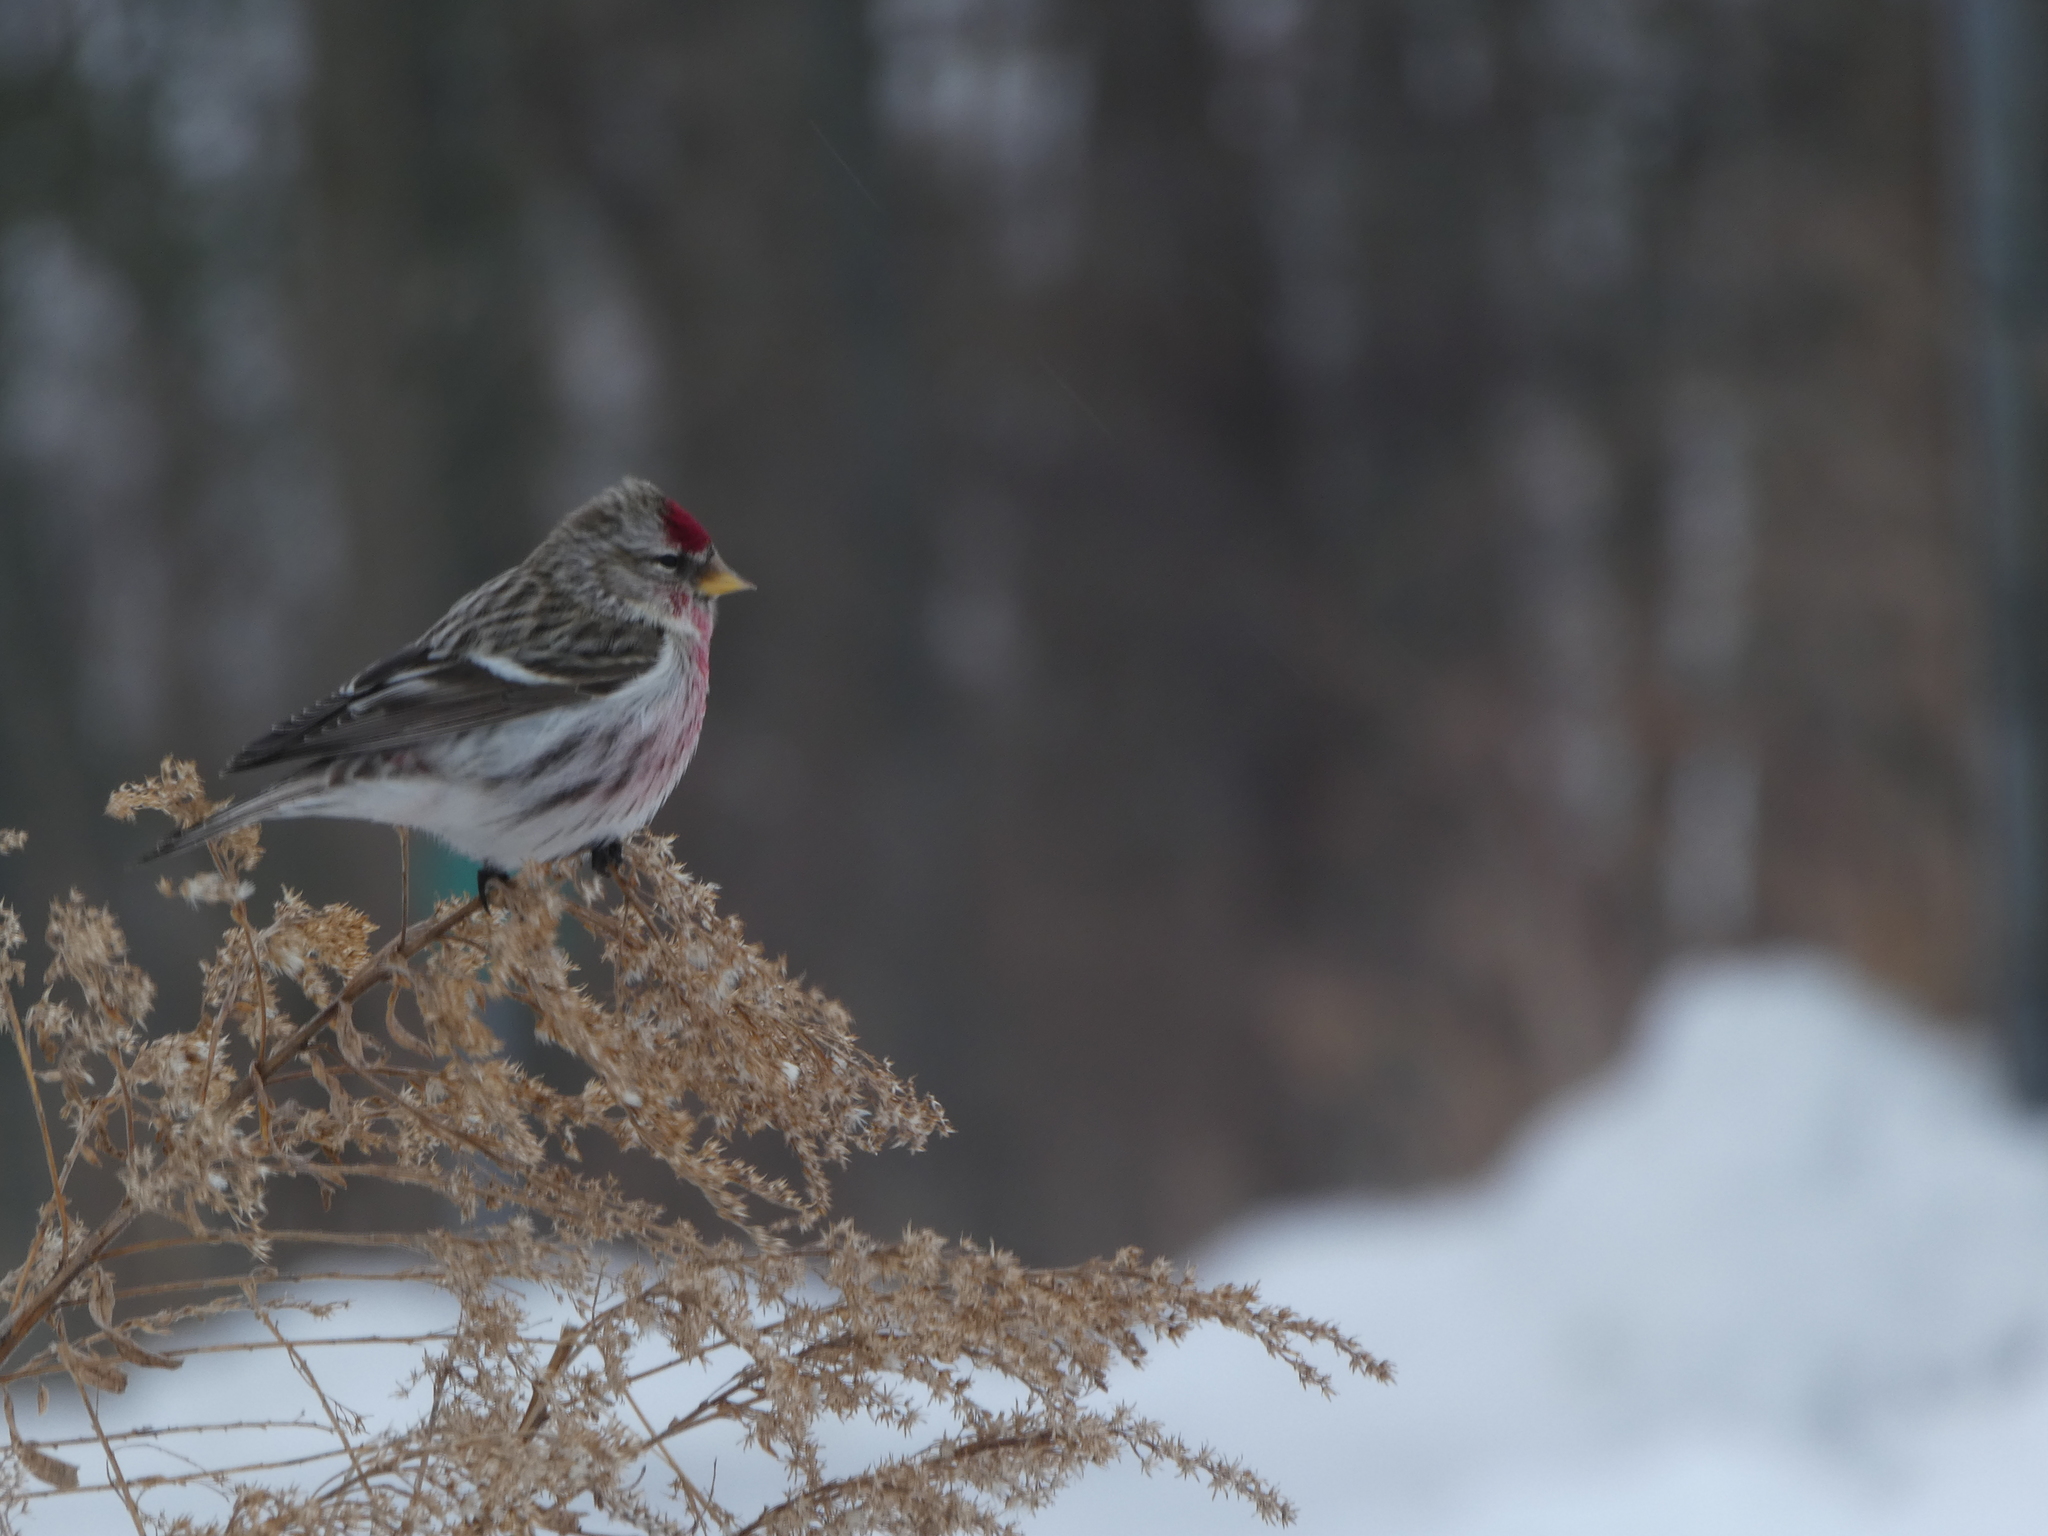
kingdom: Animalia
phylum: Chordata
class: Aves
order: Passeriformes
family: Fringillidae
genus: Acanthis
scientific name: Acanthis flammea
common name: Common redpoll
